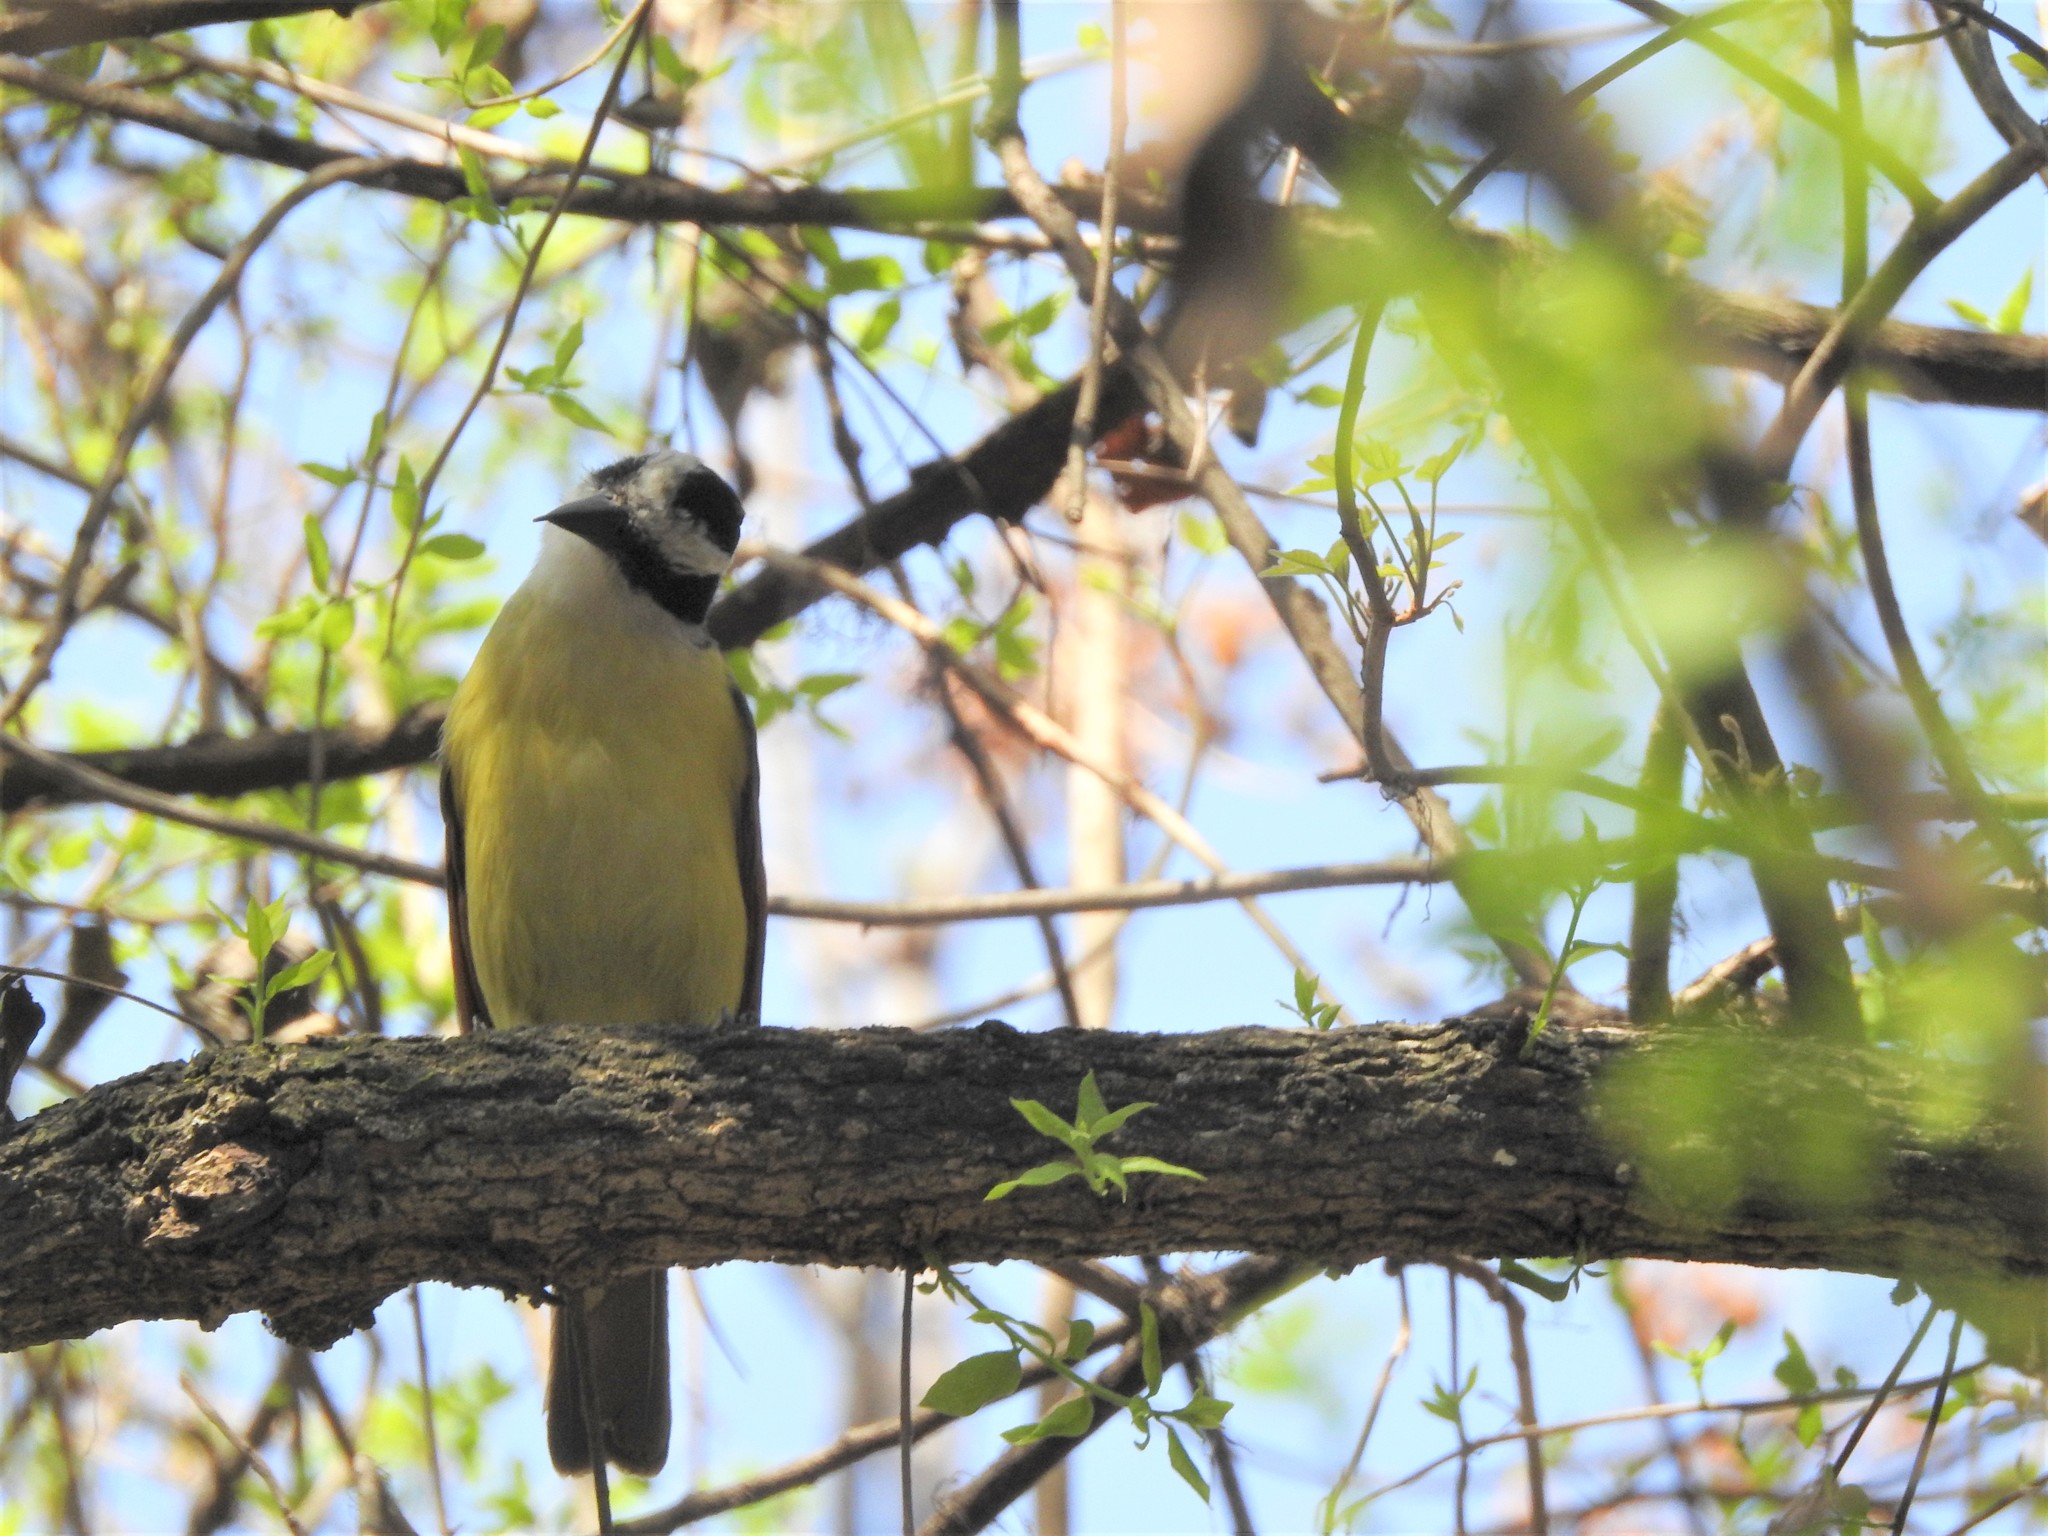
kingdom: Animalia
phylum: Chordata
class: Aves
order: Passeriformes
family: Tyrannidae
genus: Pitangus
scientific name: Pitangus sulphuratus
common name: Great kiskadee
